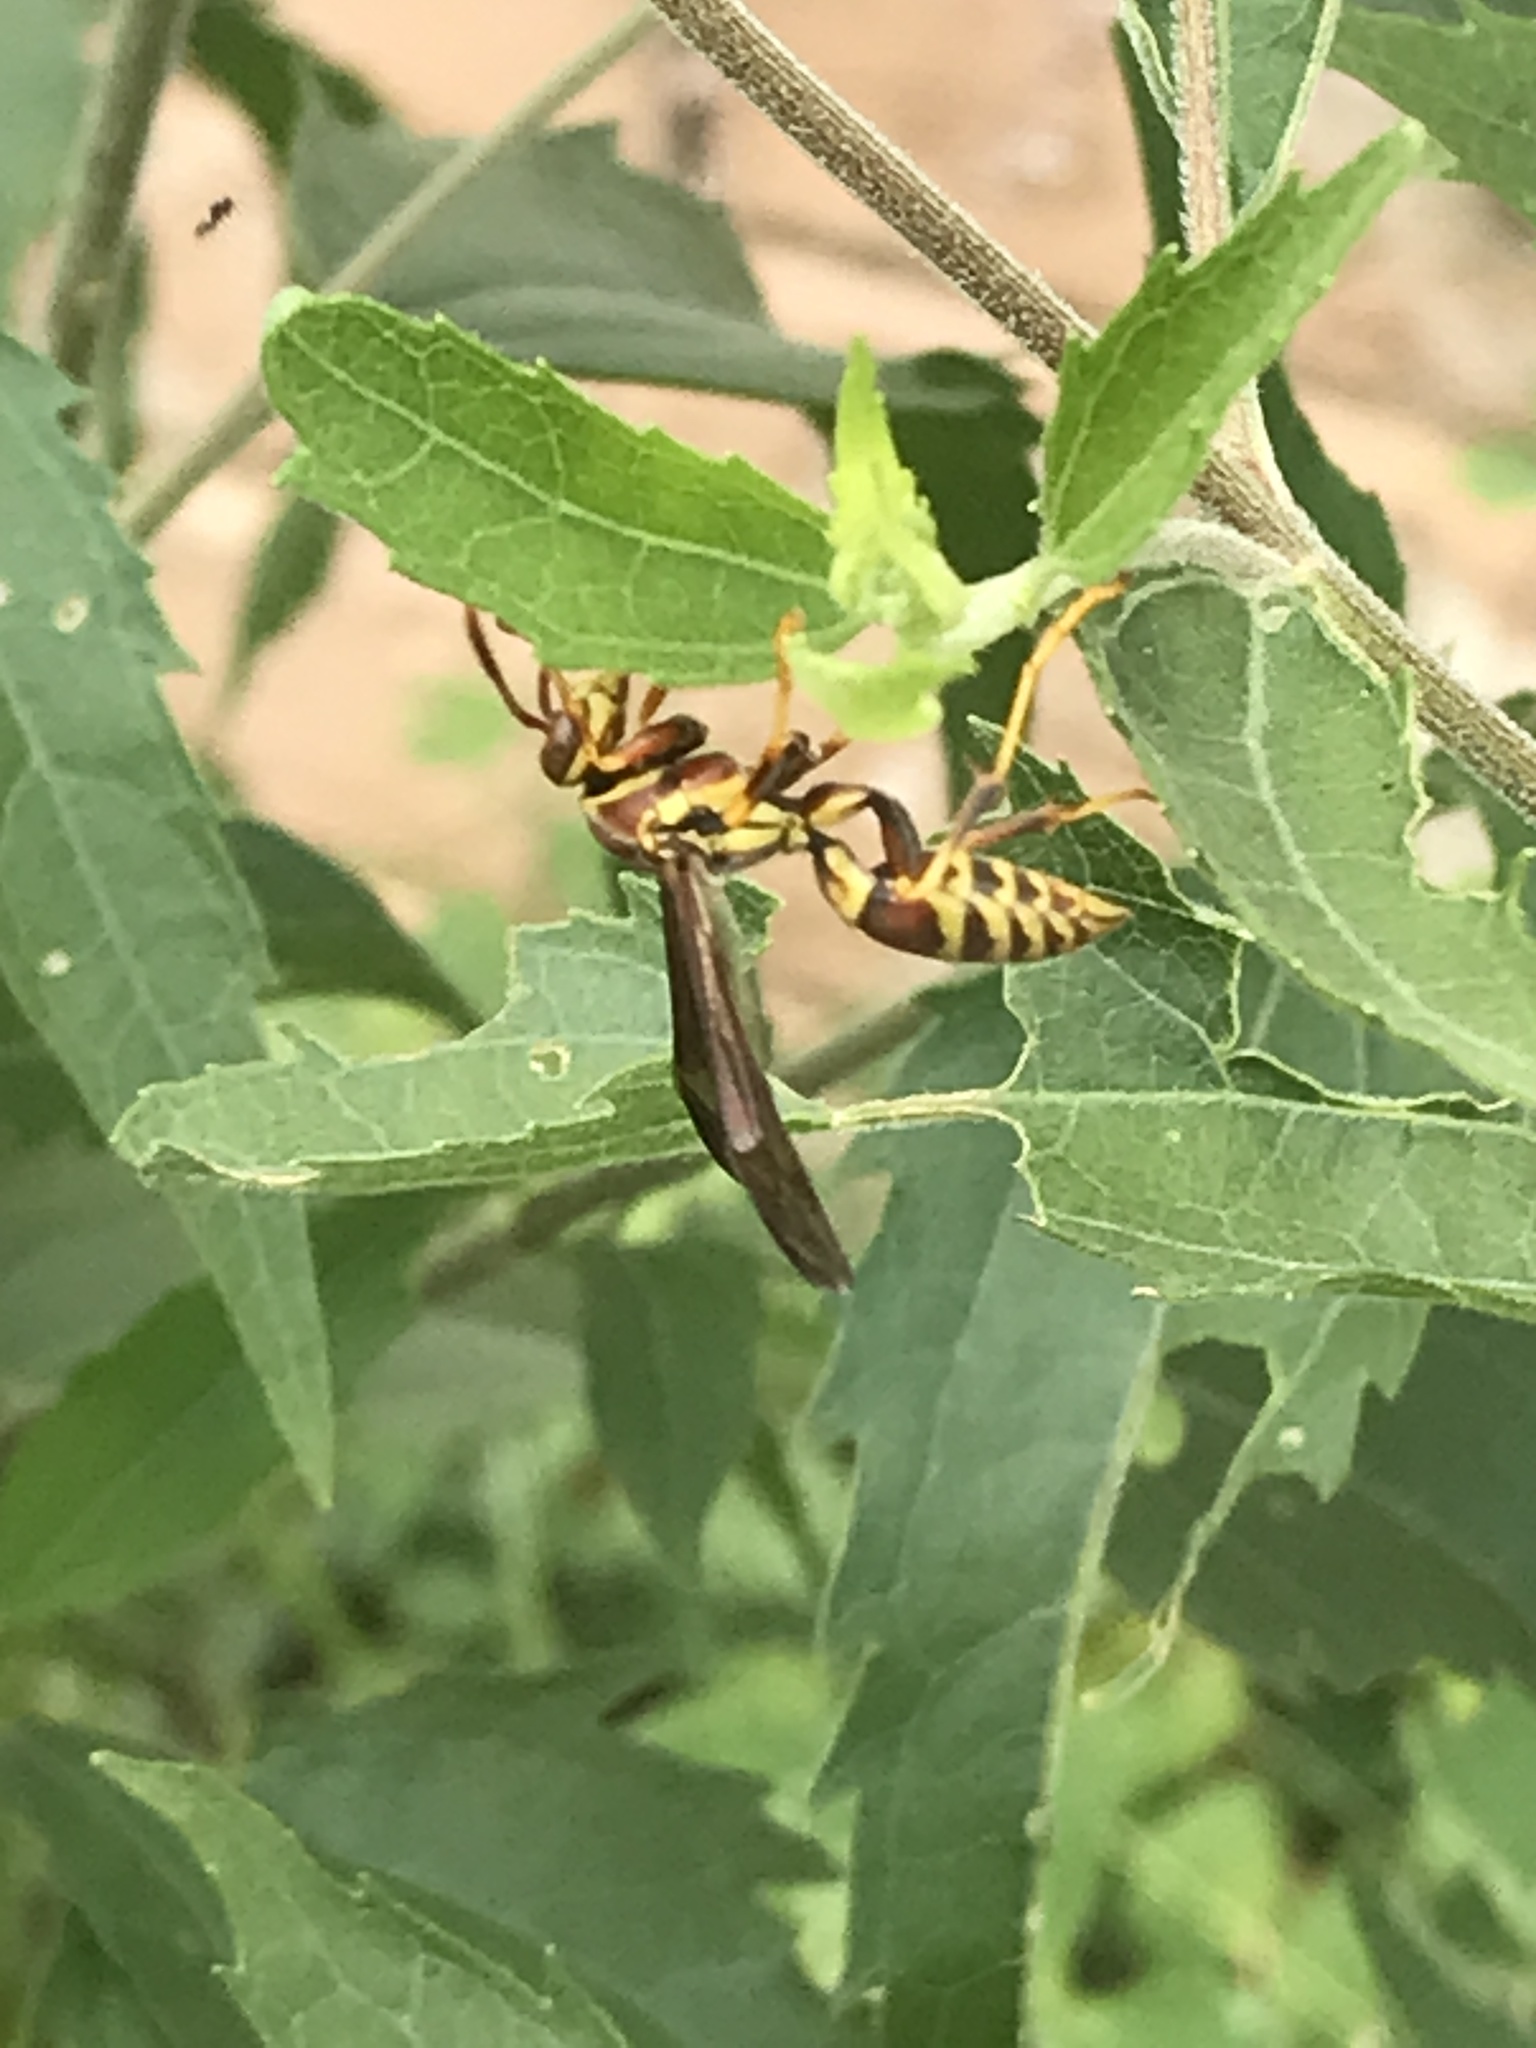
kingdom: Animalia
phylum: Arthropoda
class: Insecta
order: Hymenoptera
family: Eumenidae
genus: Polistes
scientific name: Polistes exclamans
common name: Paper wasp
